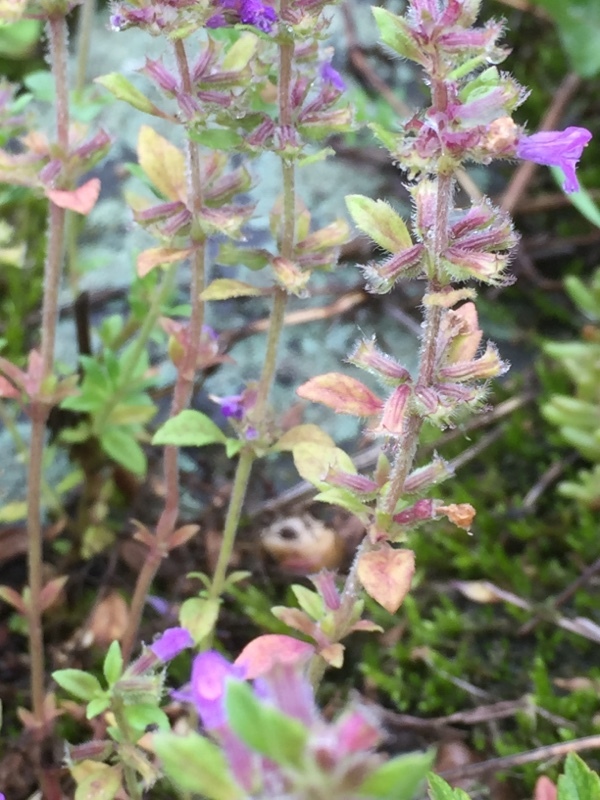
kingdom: Plantae
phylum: Tracheophyta
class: Magnoliopsida
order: Lamiales
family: Lamiaceae
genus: Clinopodium
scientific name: Clinopodium acinos
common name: Basil thyme
